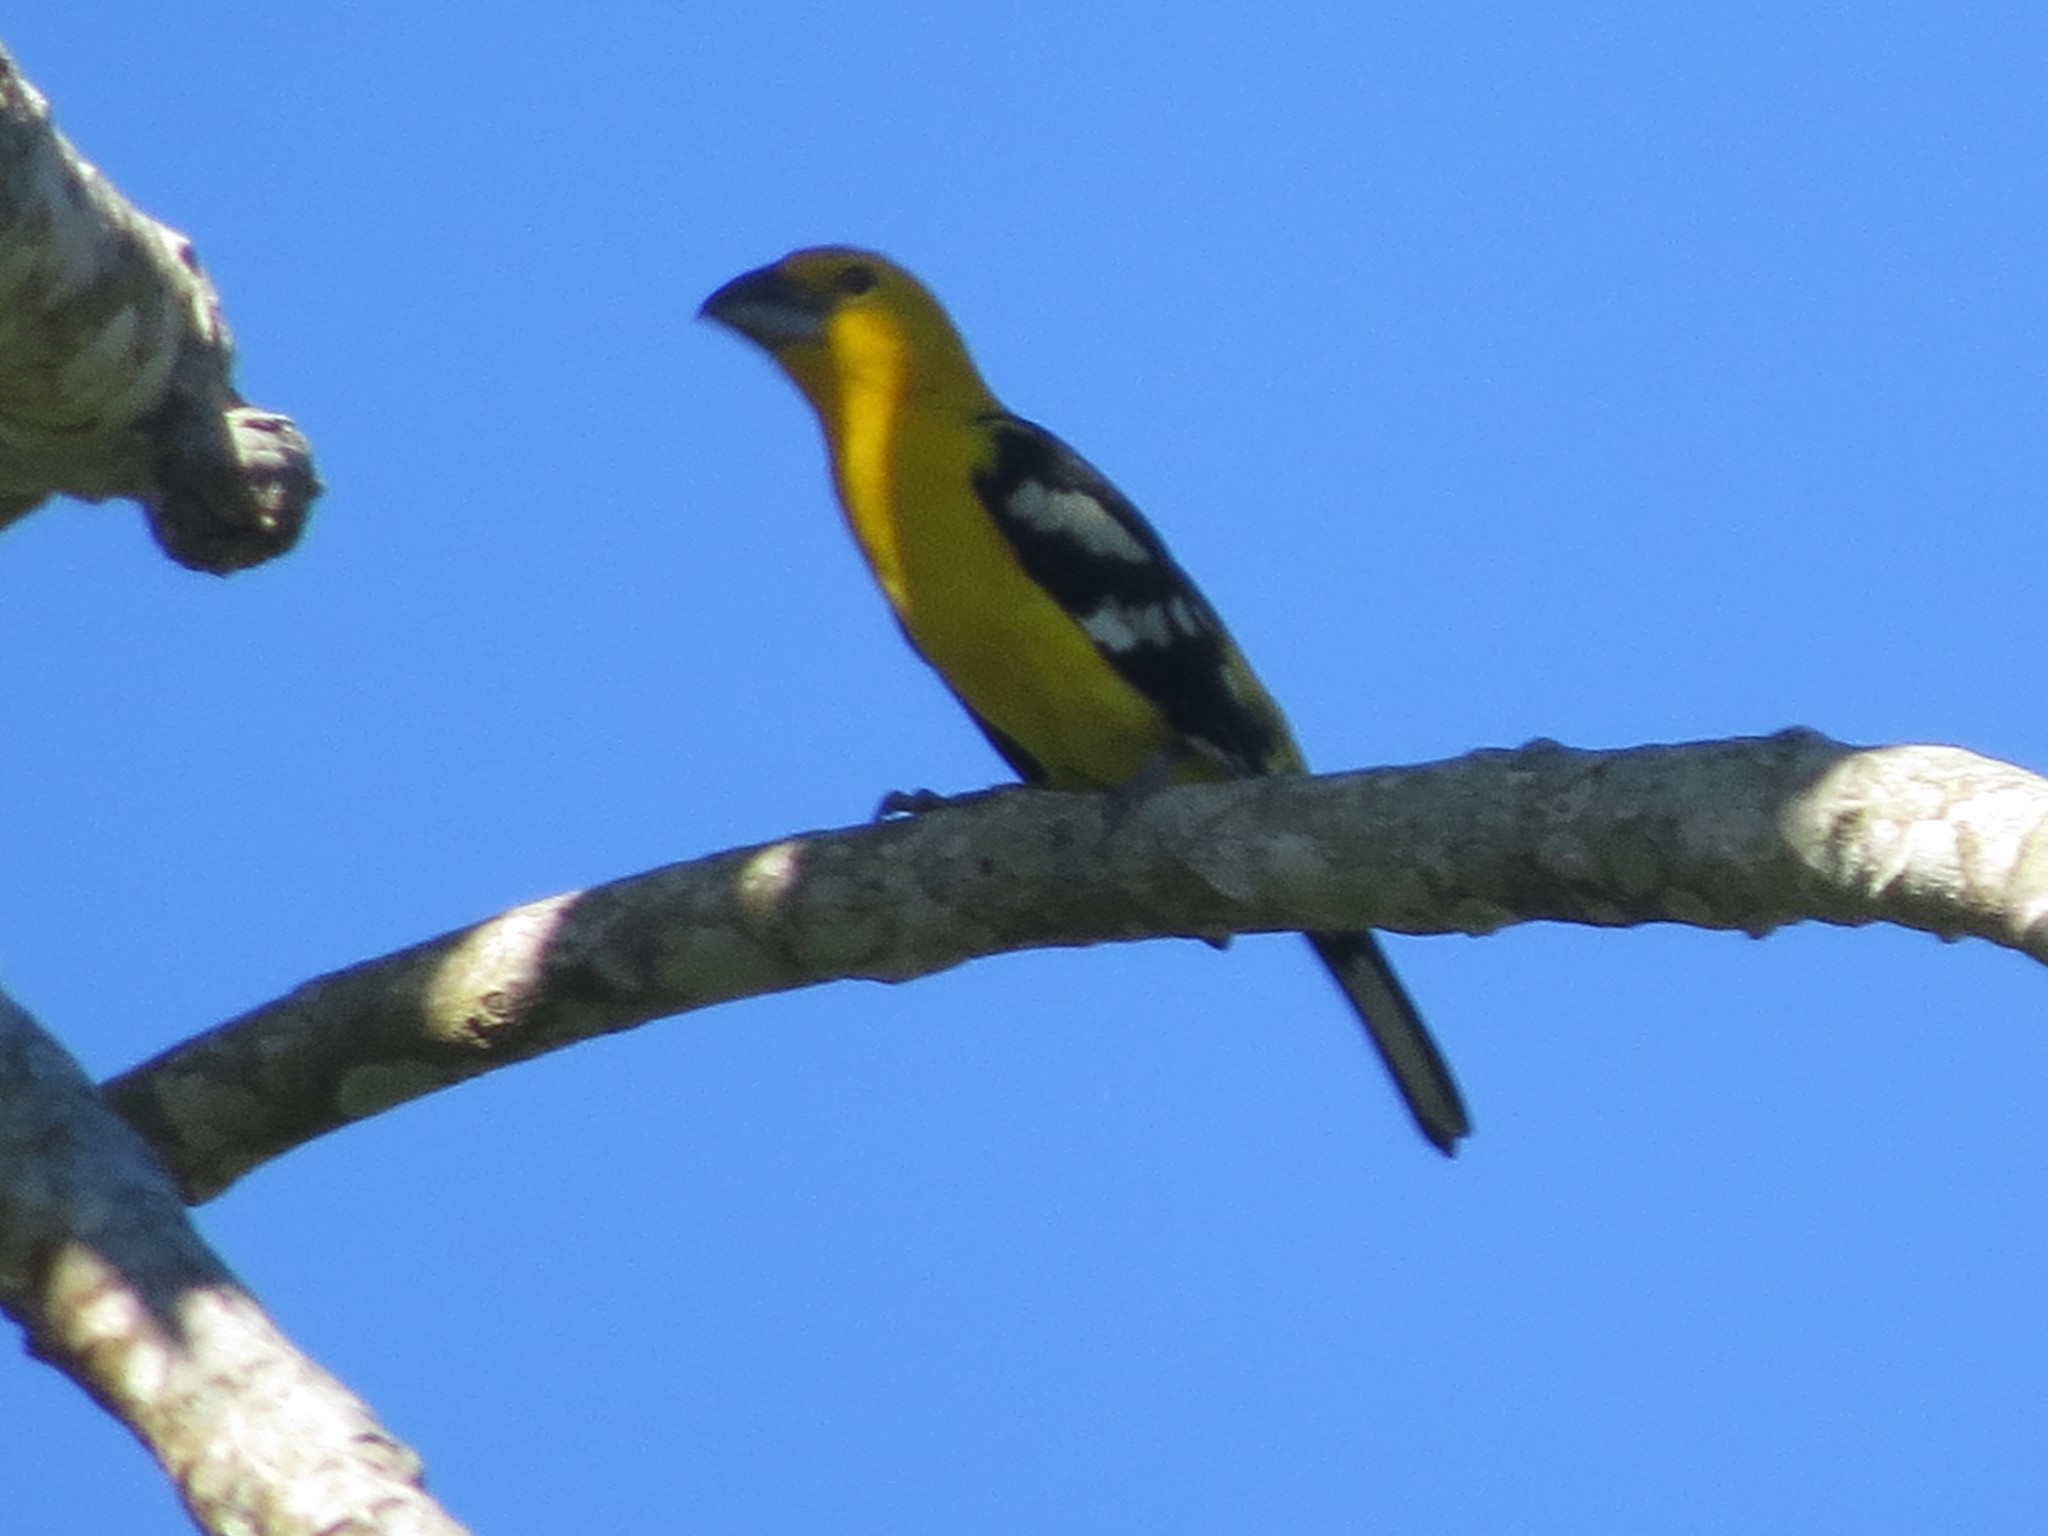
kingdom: Animalia
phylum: Chordata
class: Aves
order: Passeriformes
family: Cardinalidae
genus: Pheucticus
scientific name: Pheucticus chrysopeplus
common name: Yellow grosbeak
